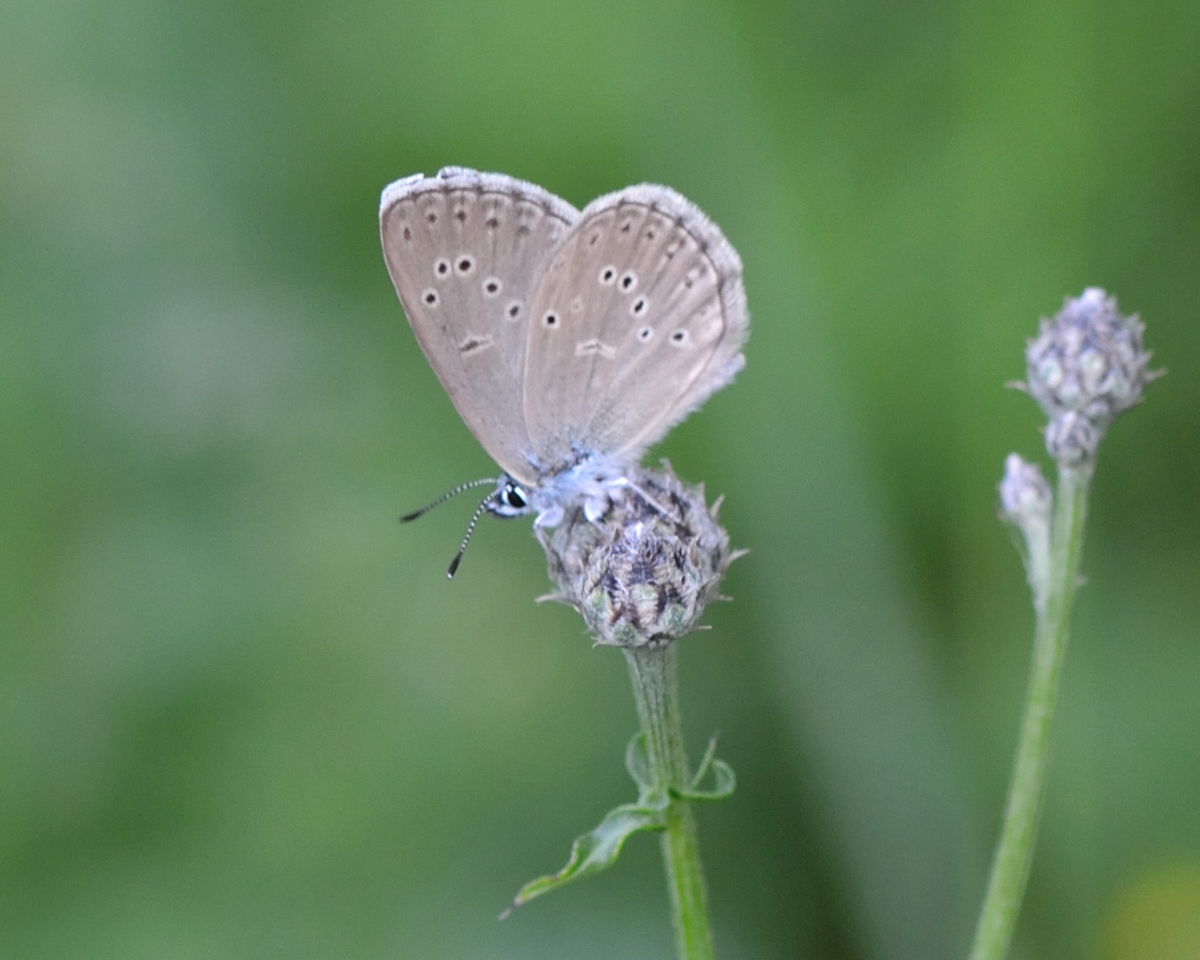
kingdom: Animalia
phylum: Arthropoda
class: Insecta
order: Lepidoptera
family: Lycaenidae
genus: Maculinea
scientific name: Maculinea alcon
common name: Alcon blue
